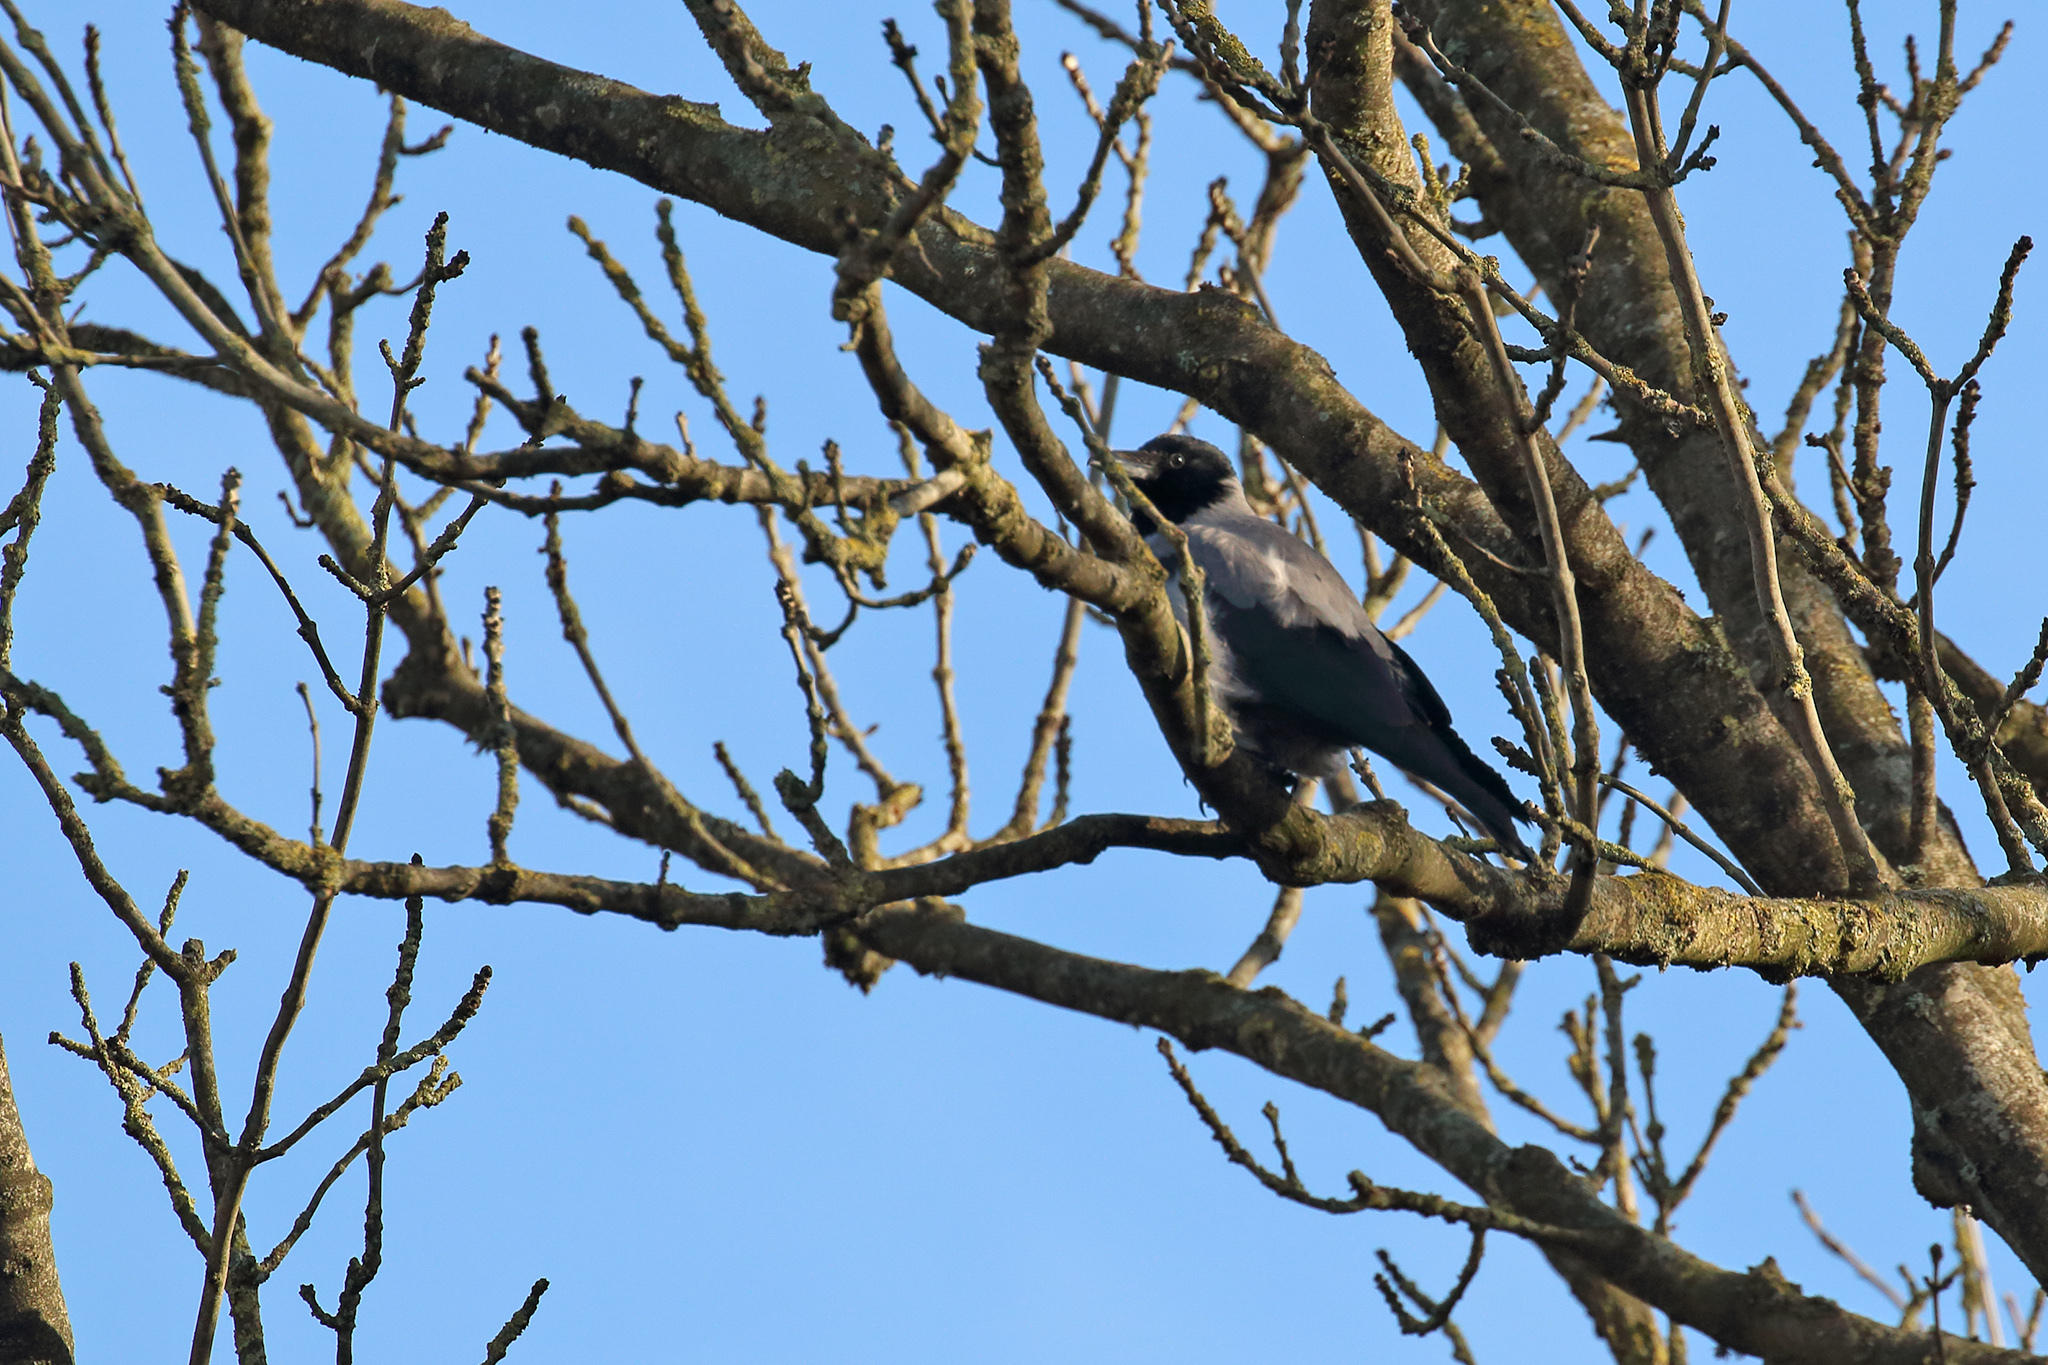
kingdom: Animalia
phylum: Chordata
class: Aves
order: Passeriformes
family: Corvidae
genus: Corvus
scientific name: Corvus cornix
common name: Hooded crow
